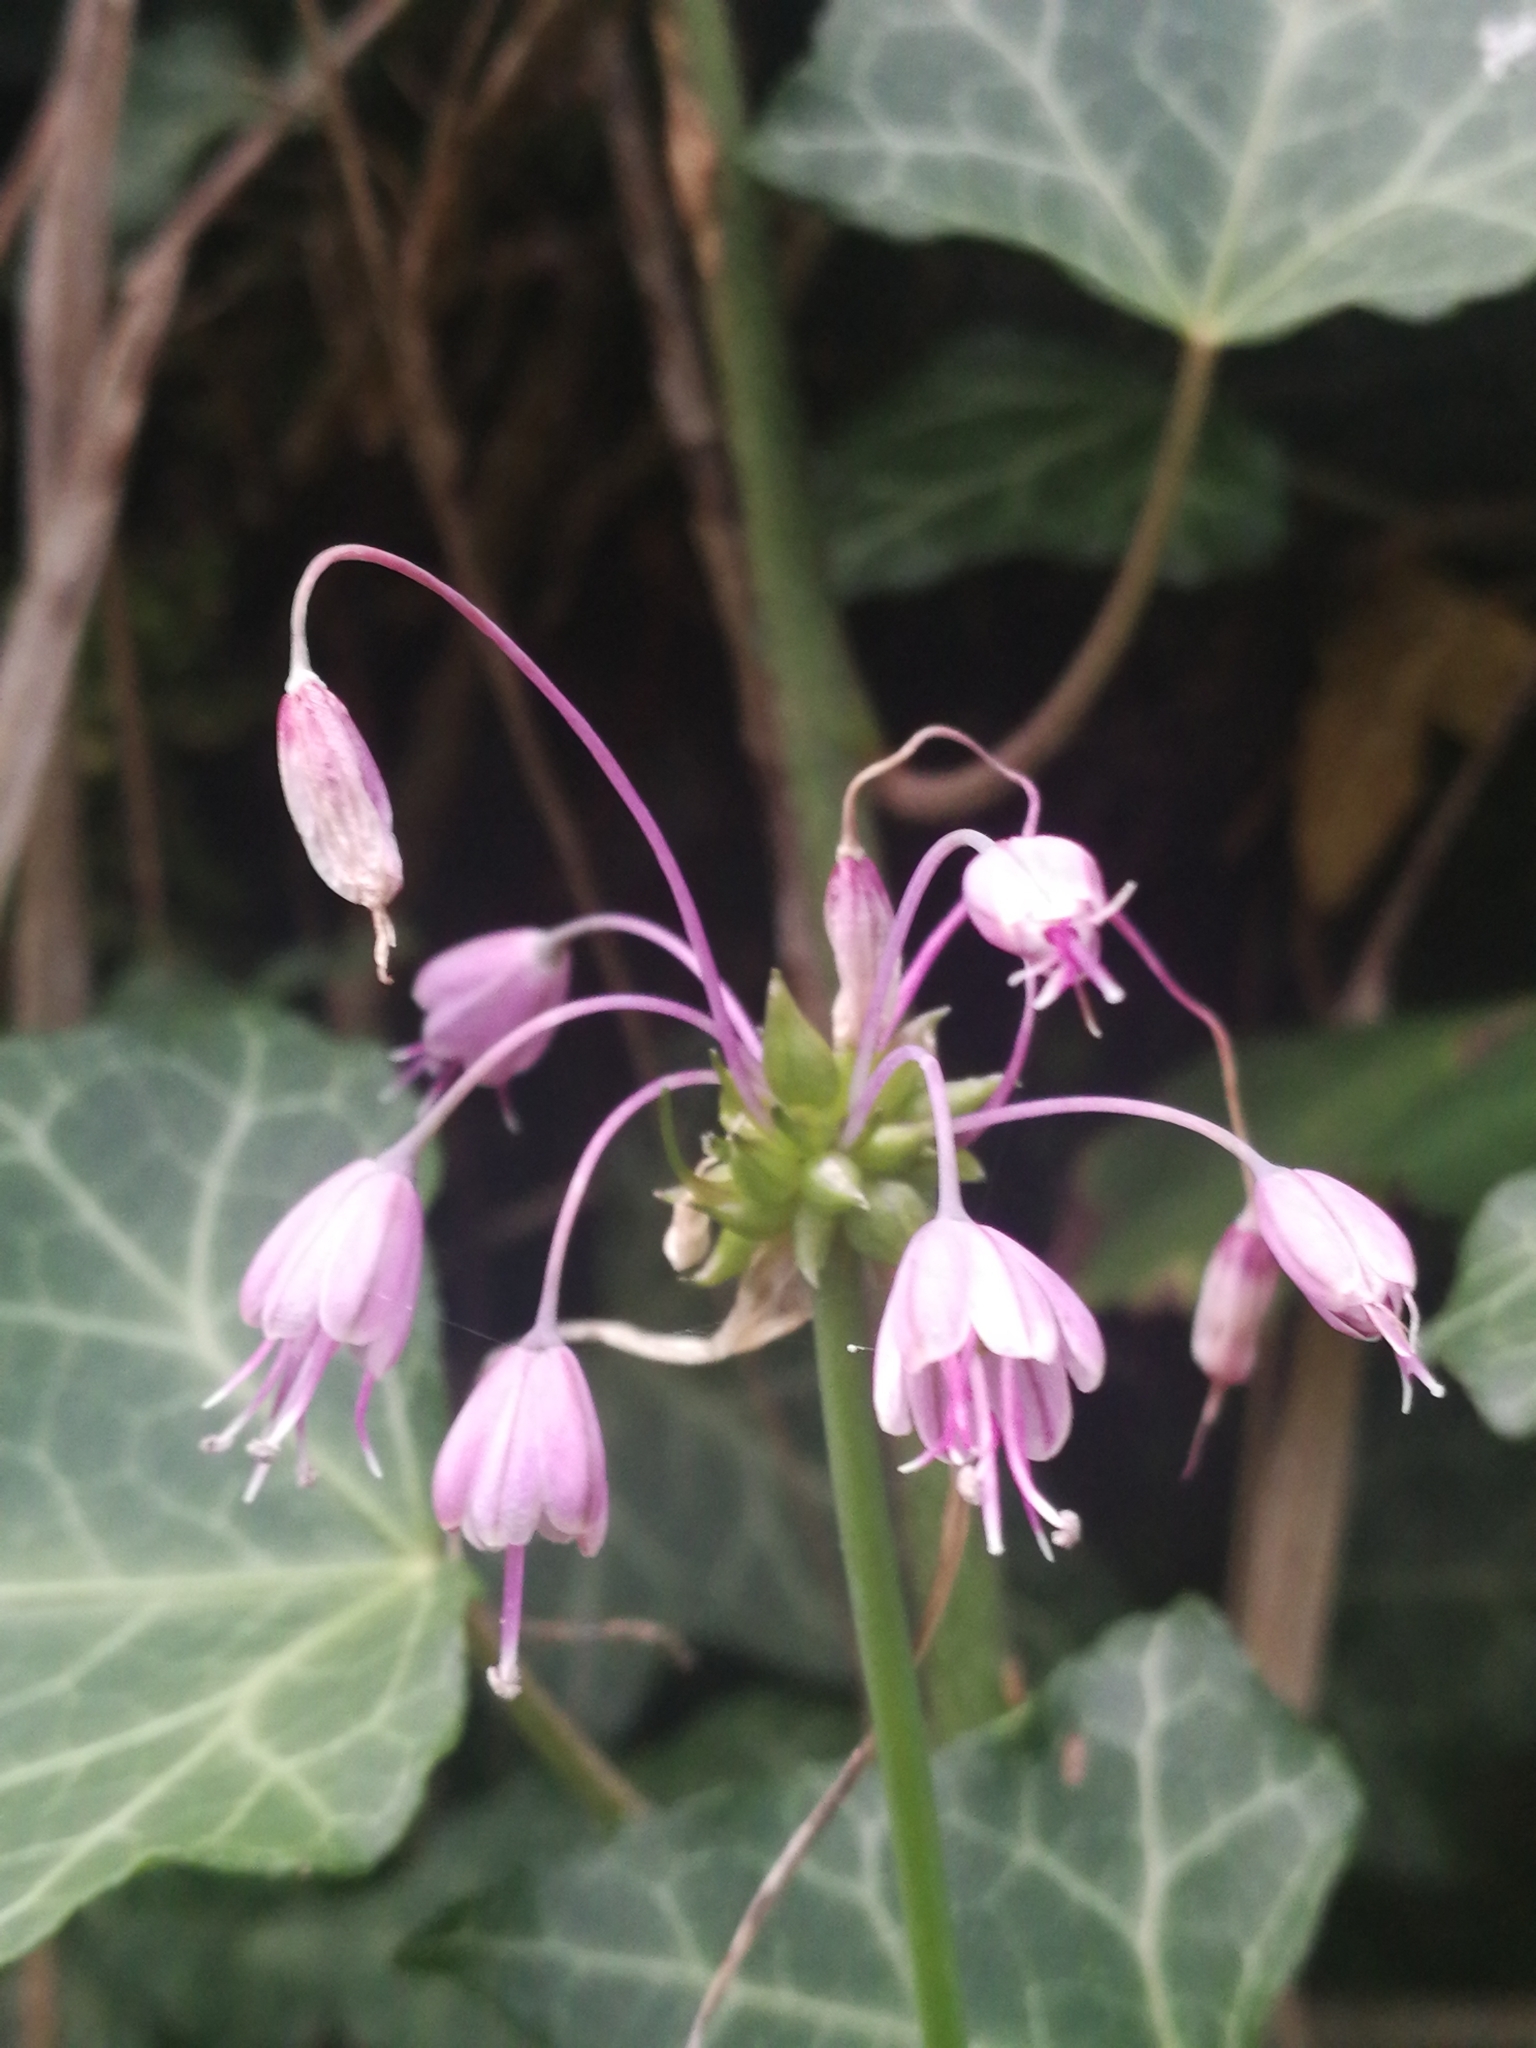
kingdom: Plantae
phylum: Tracheophyta
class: Liliopsida
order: Asparagales
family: Amaryllidaceae
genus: Allium
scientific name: Allium carinatum
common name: Keeled garlic
